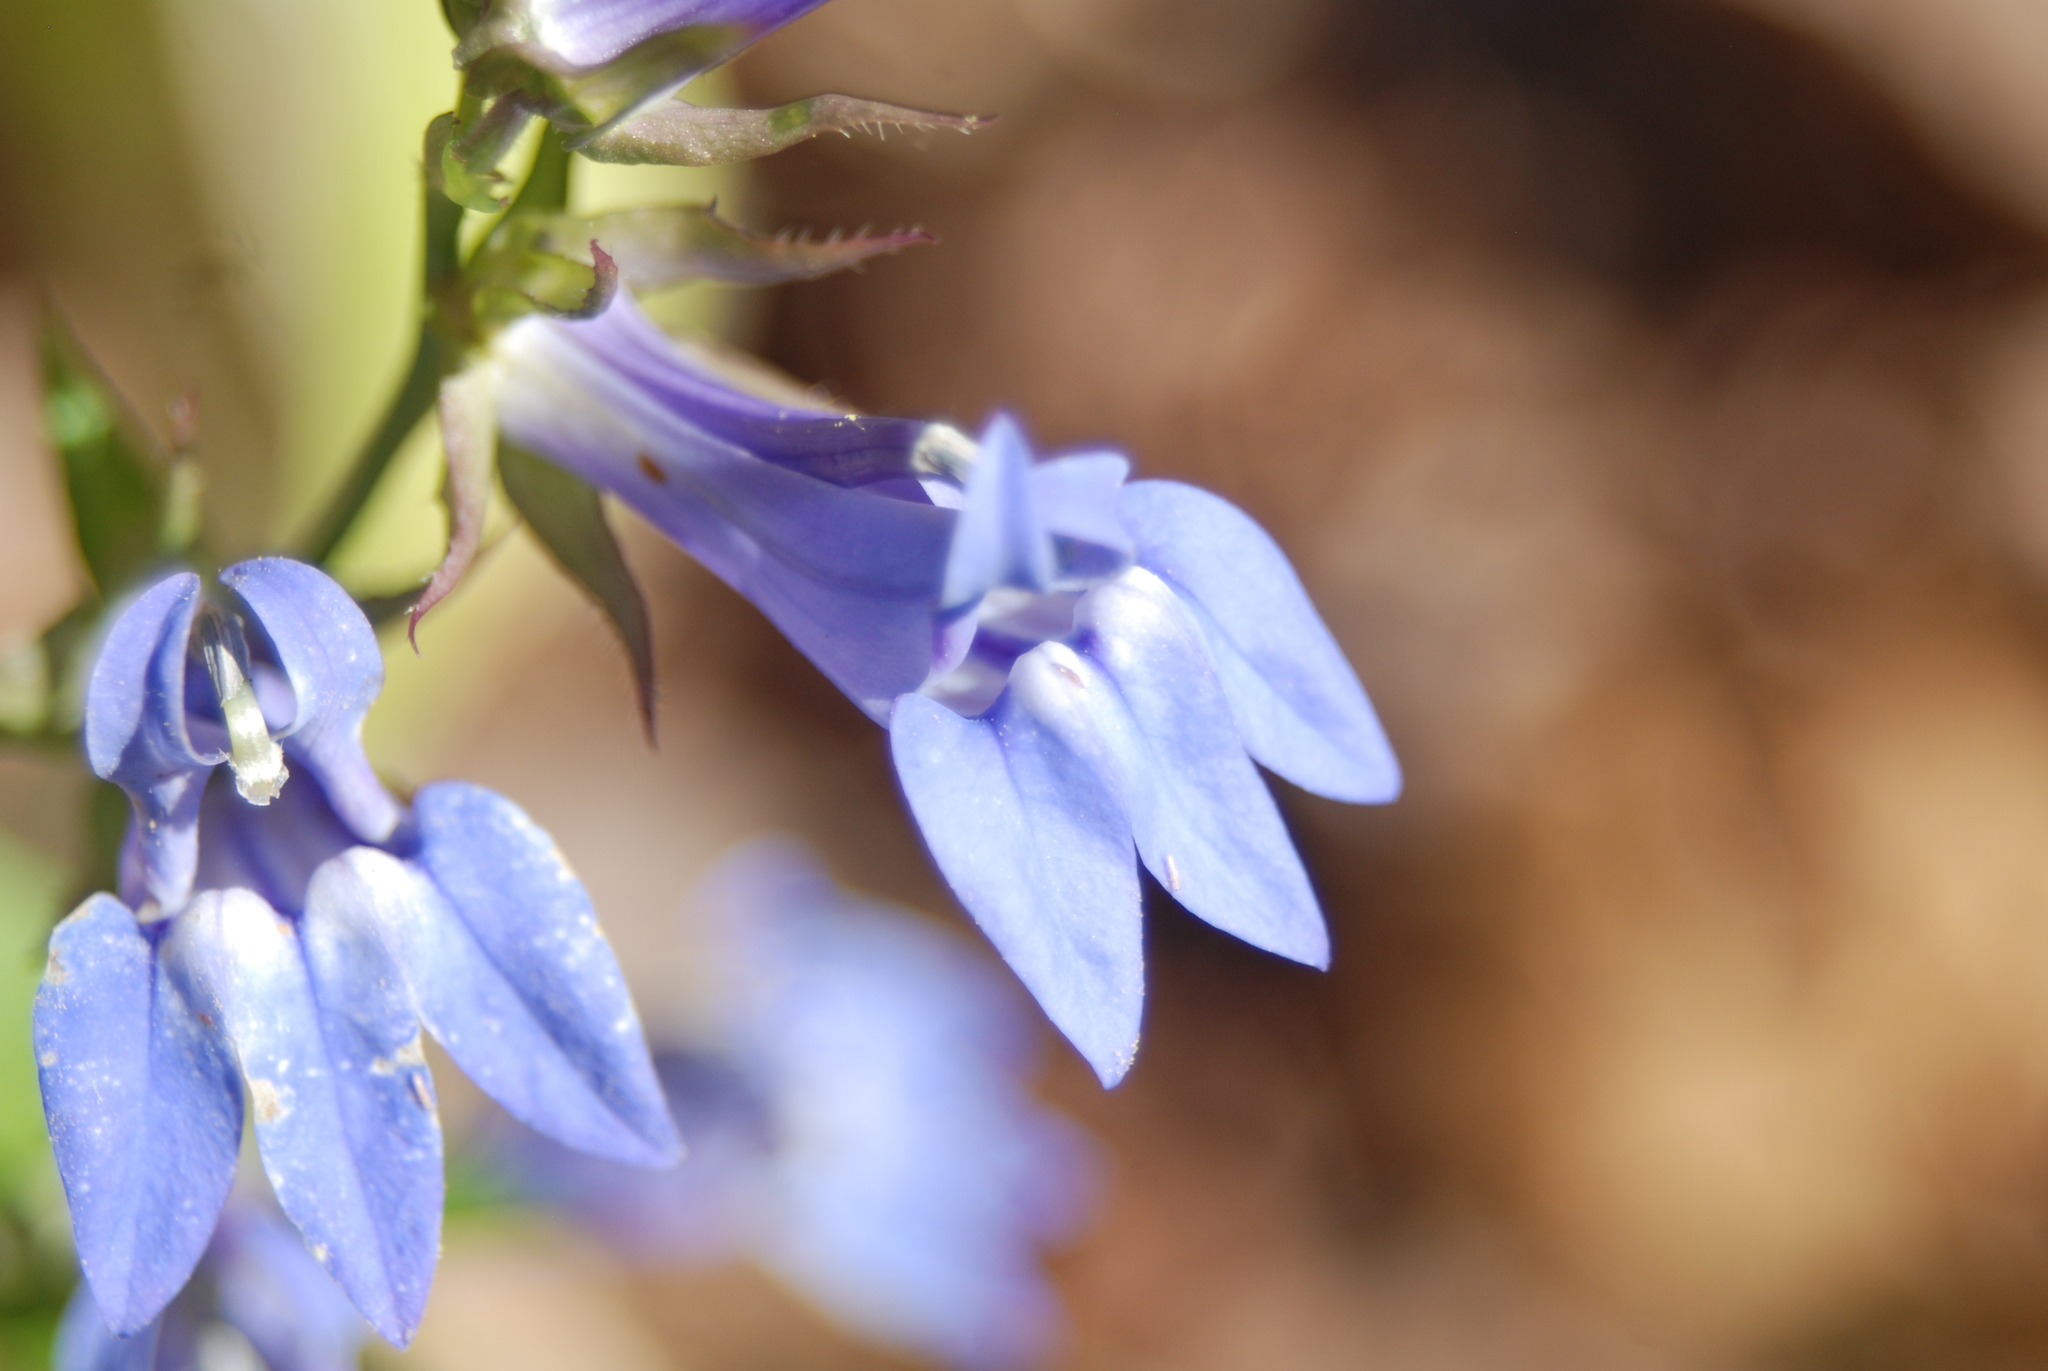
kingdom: Plantae
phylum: Tracheophyta
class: Magnoliopsida
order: Asterales
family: Campanulaceae
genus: Lobelia
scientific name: Lobelia siphilitica
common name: Great lobelia
